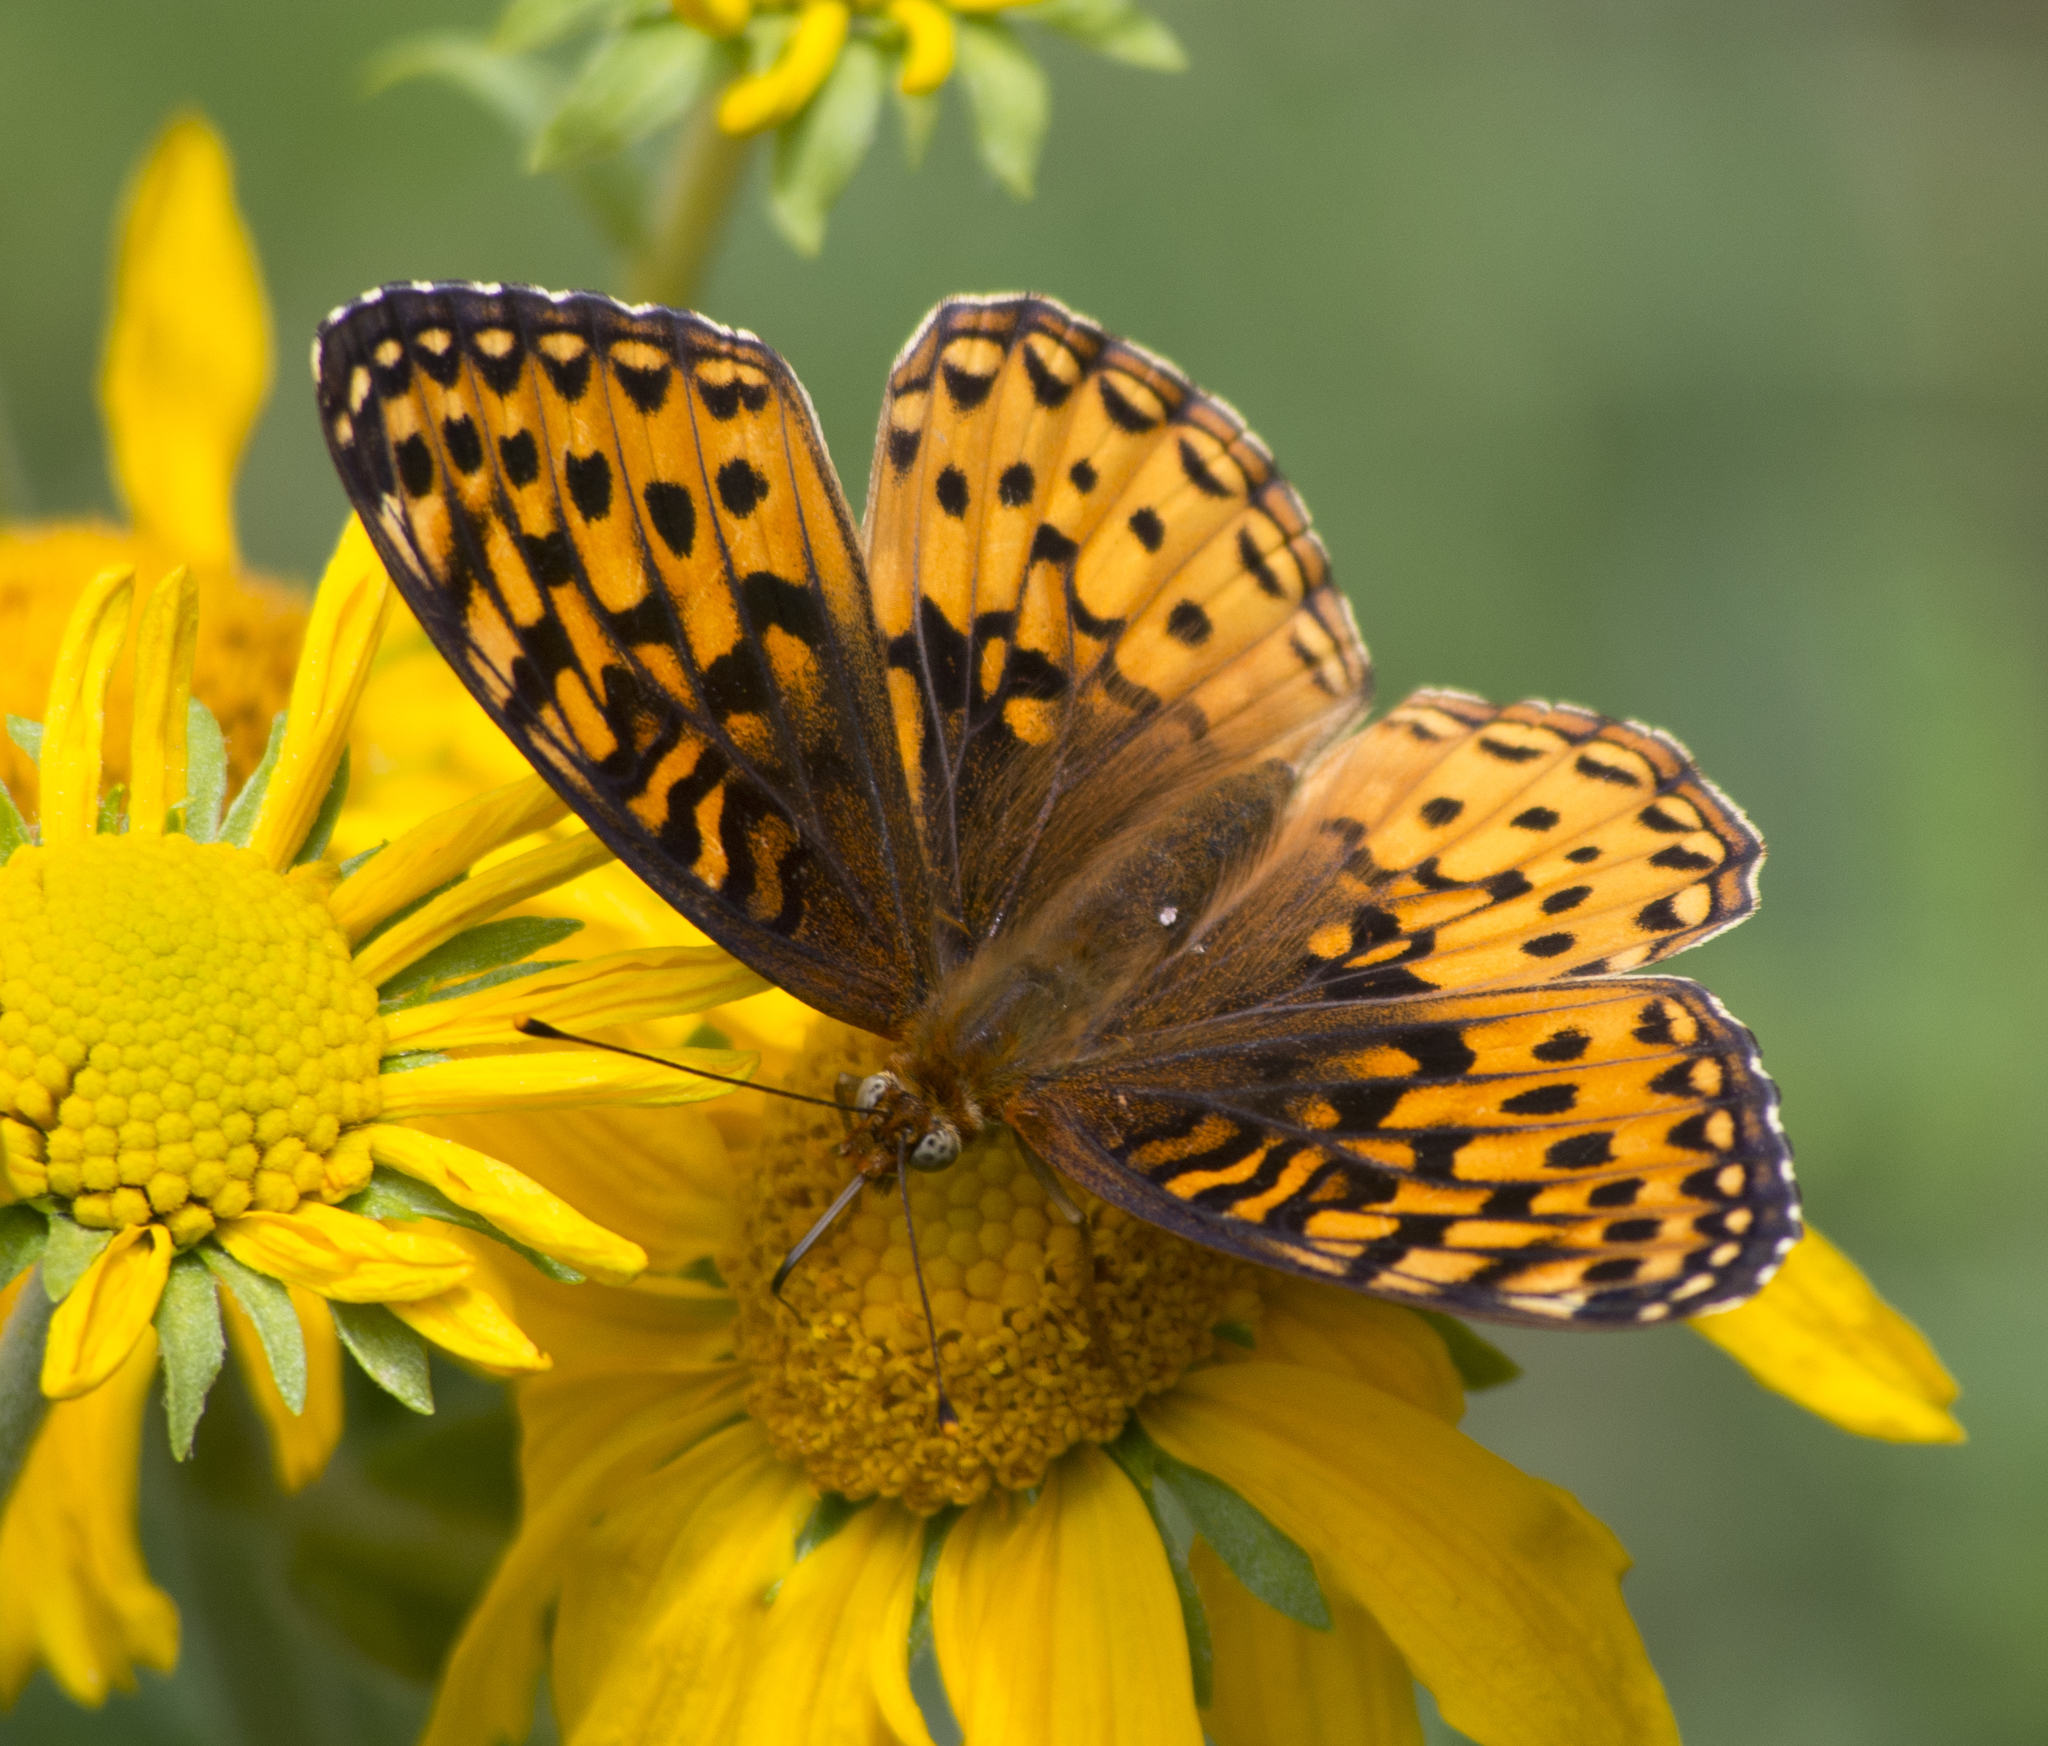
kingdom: Animalia
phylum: Arthropoda
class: Insecta
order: Lepidoptera
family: Nymphalidae
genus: Speyeria
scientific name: Speyeria atlantis
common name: Atlantis fritillary
